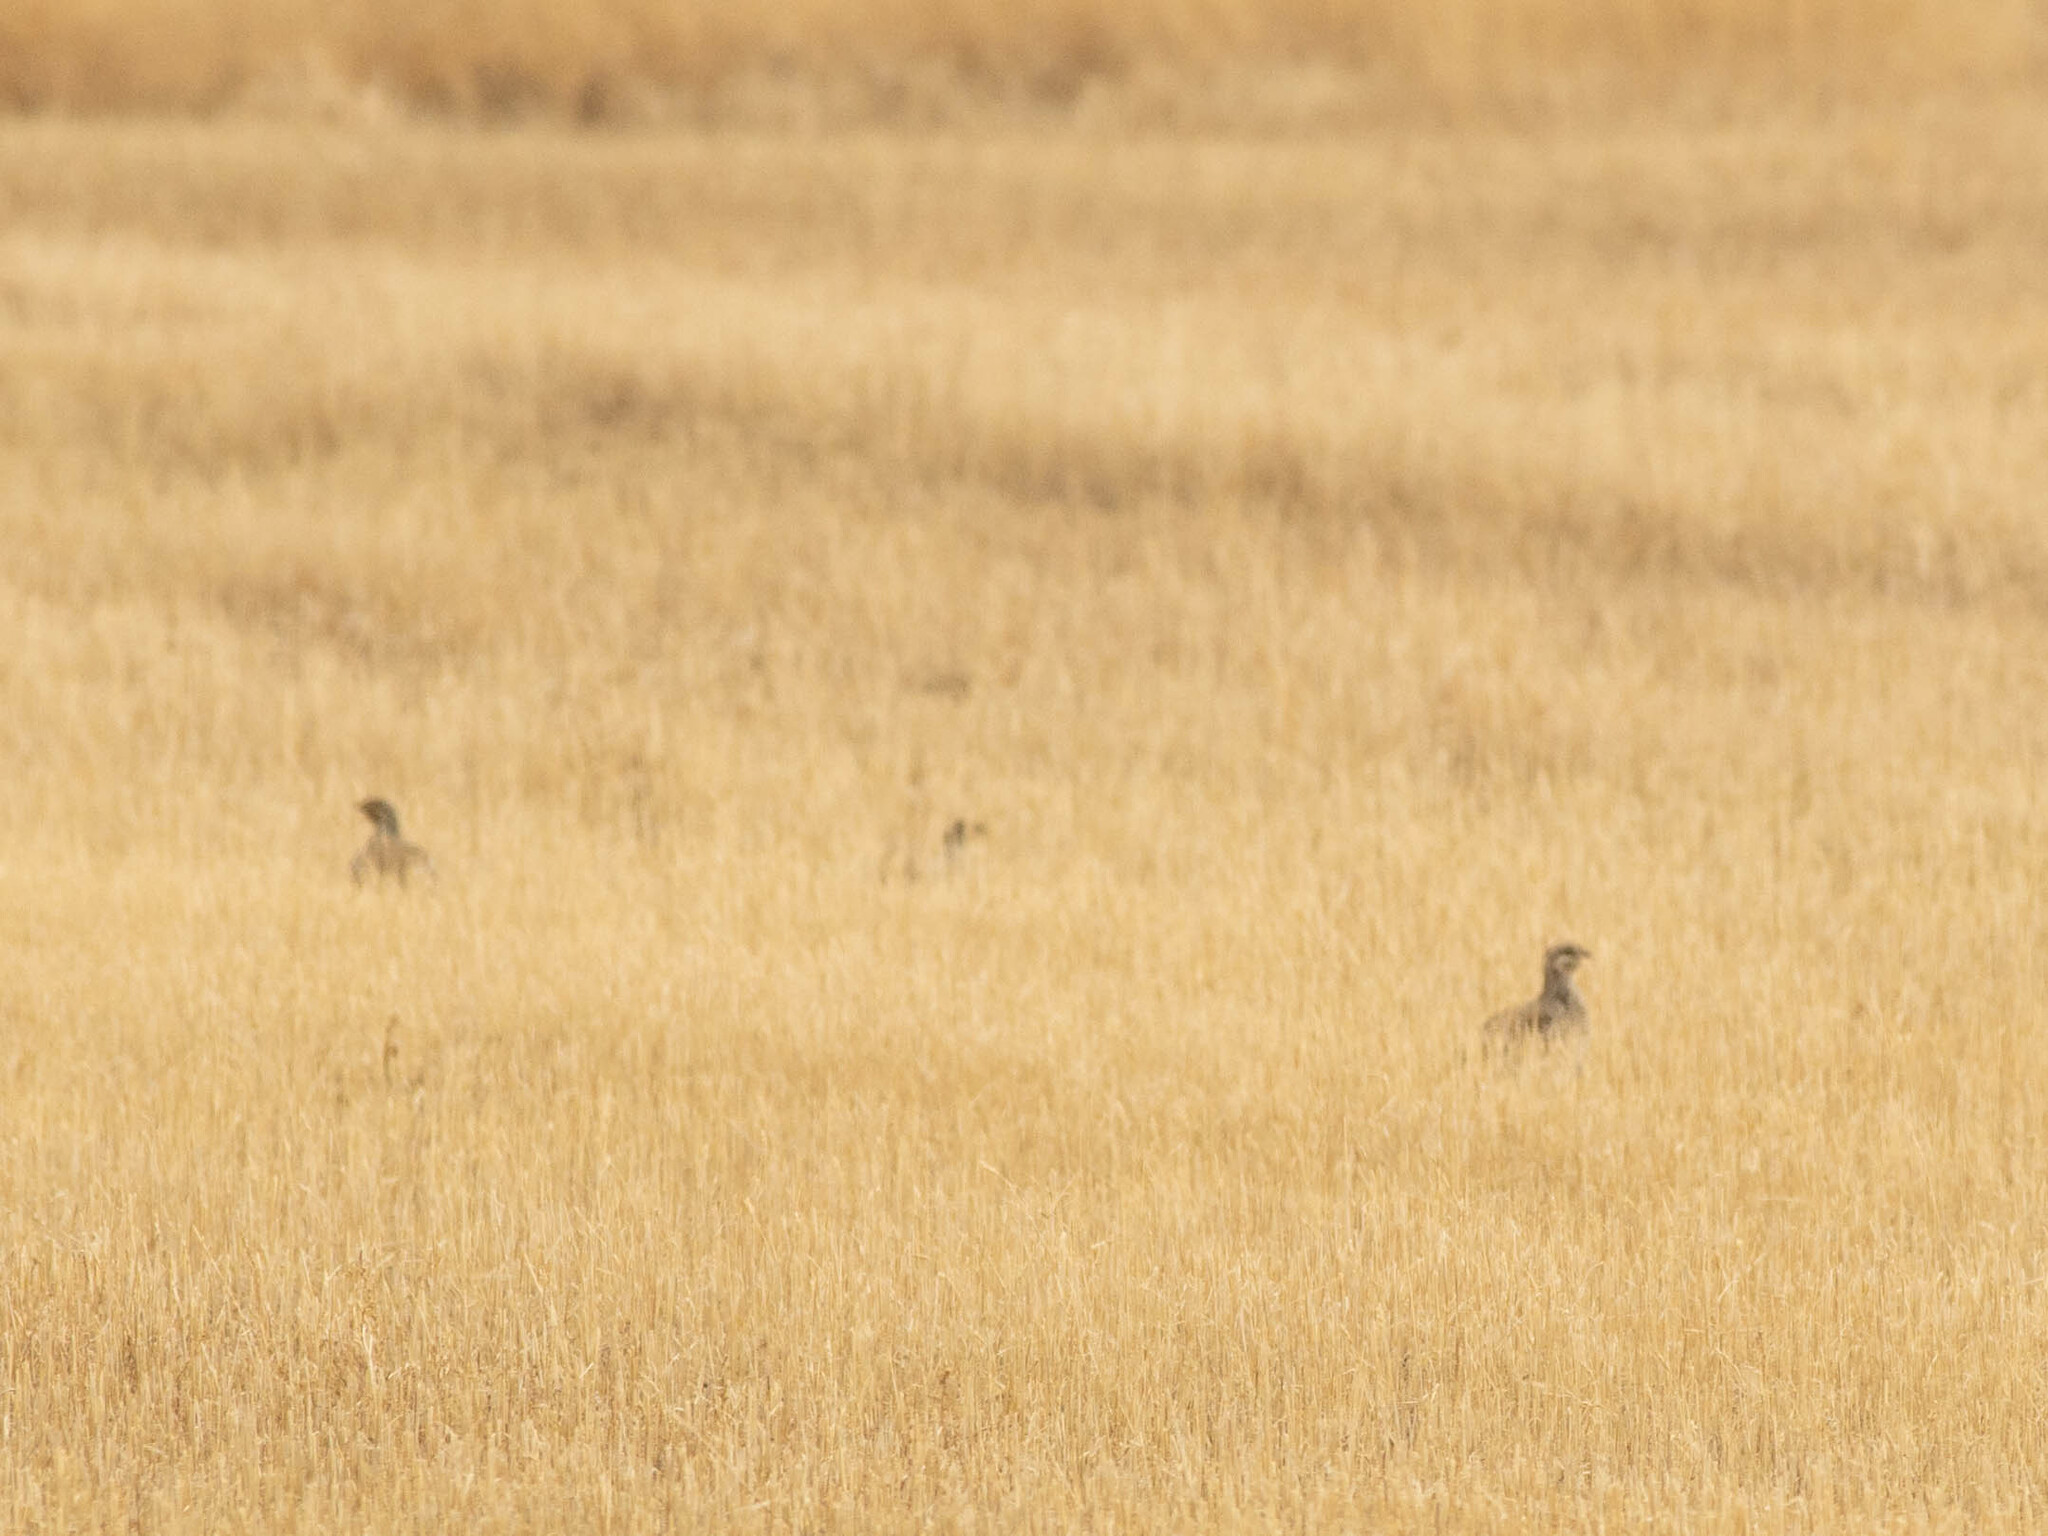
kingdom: Animalia
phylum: Chordata
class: Aves
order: Galliformes
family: Phasianidae
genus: Tympanuchus
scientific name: Tympanuchus phasianellus
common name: Sharp-tailed grouse
